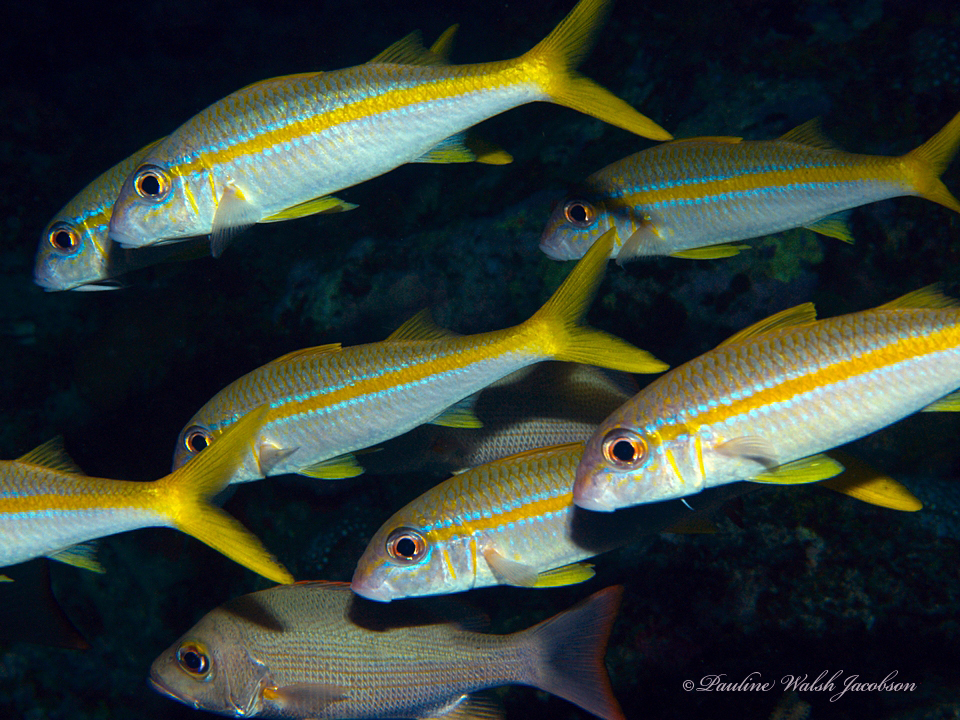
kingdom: Animalia
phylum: Chordata
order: Perciformes
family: Mullidae
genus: Mulloidichthys
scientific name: Mulloidichthys martinicus
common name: Yellow goatfish
